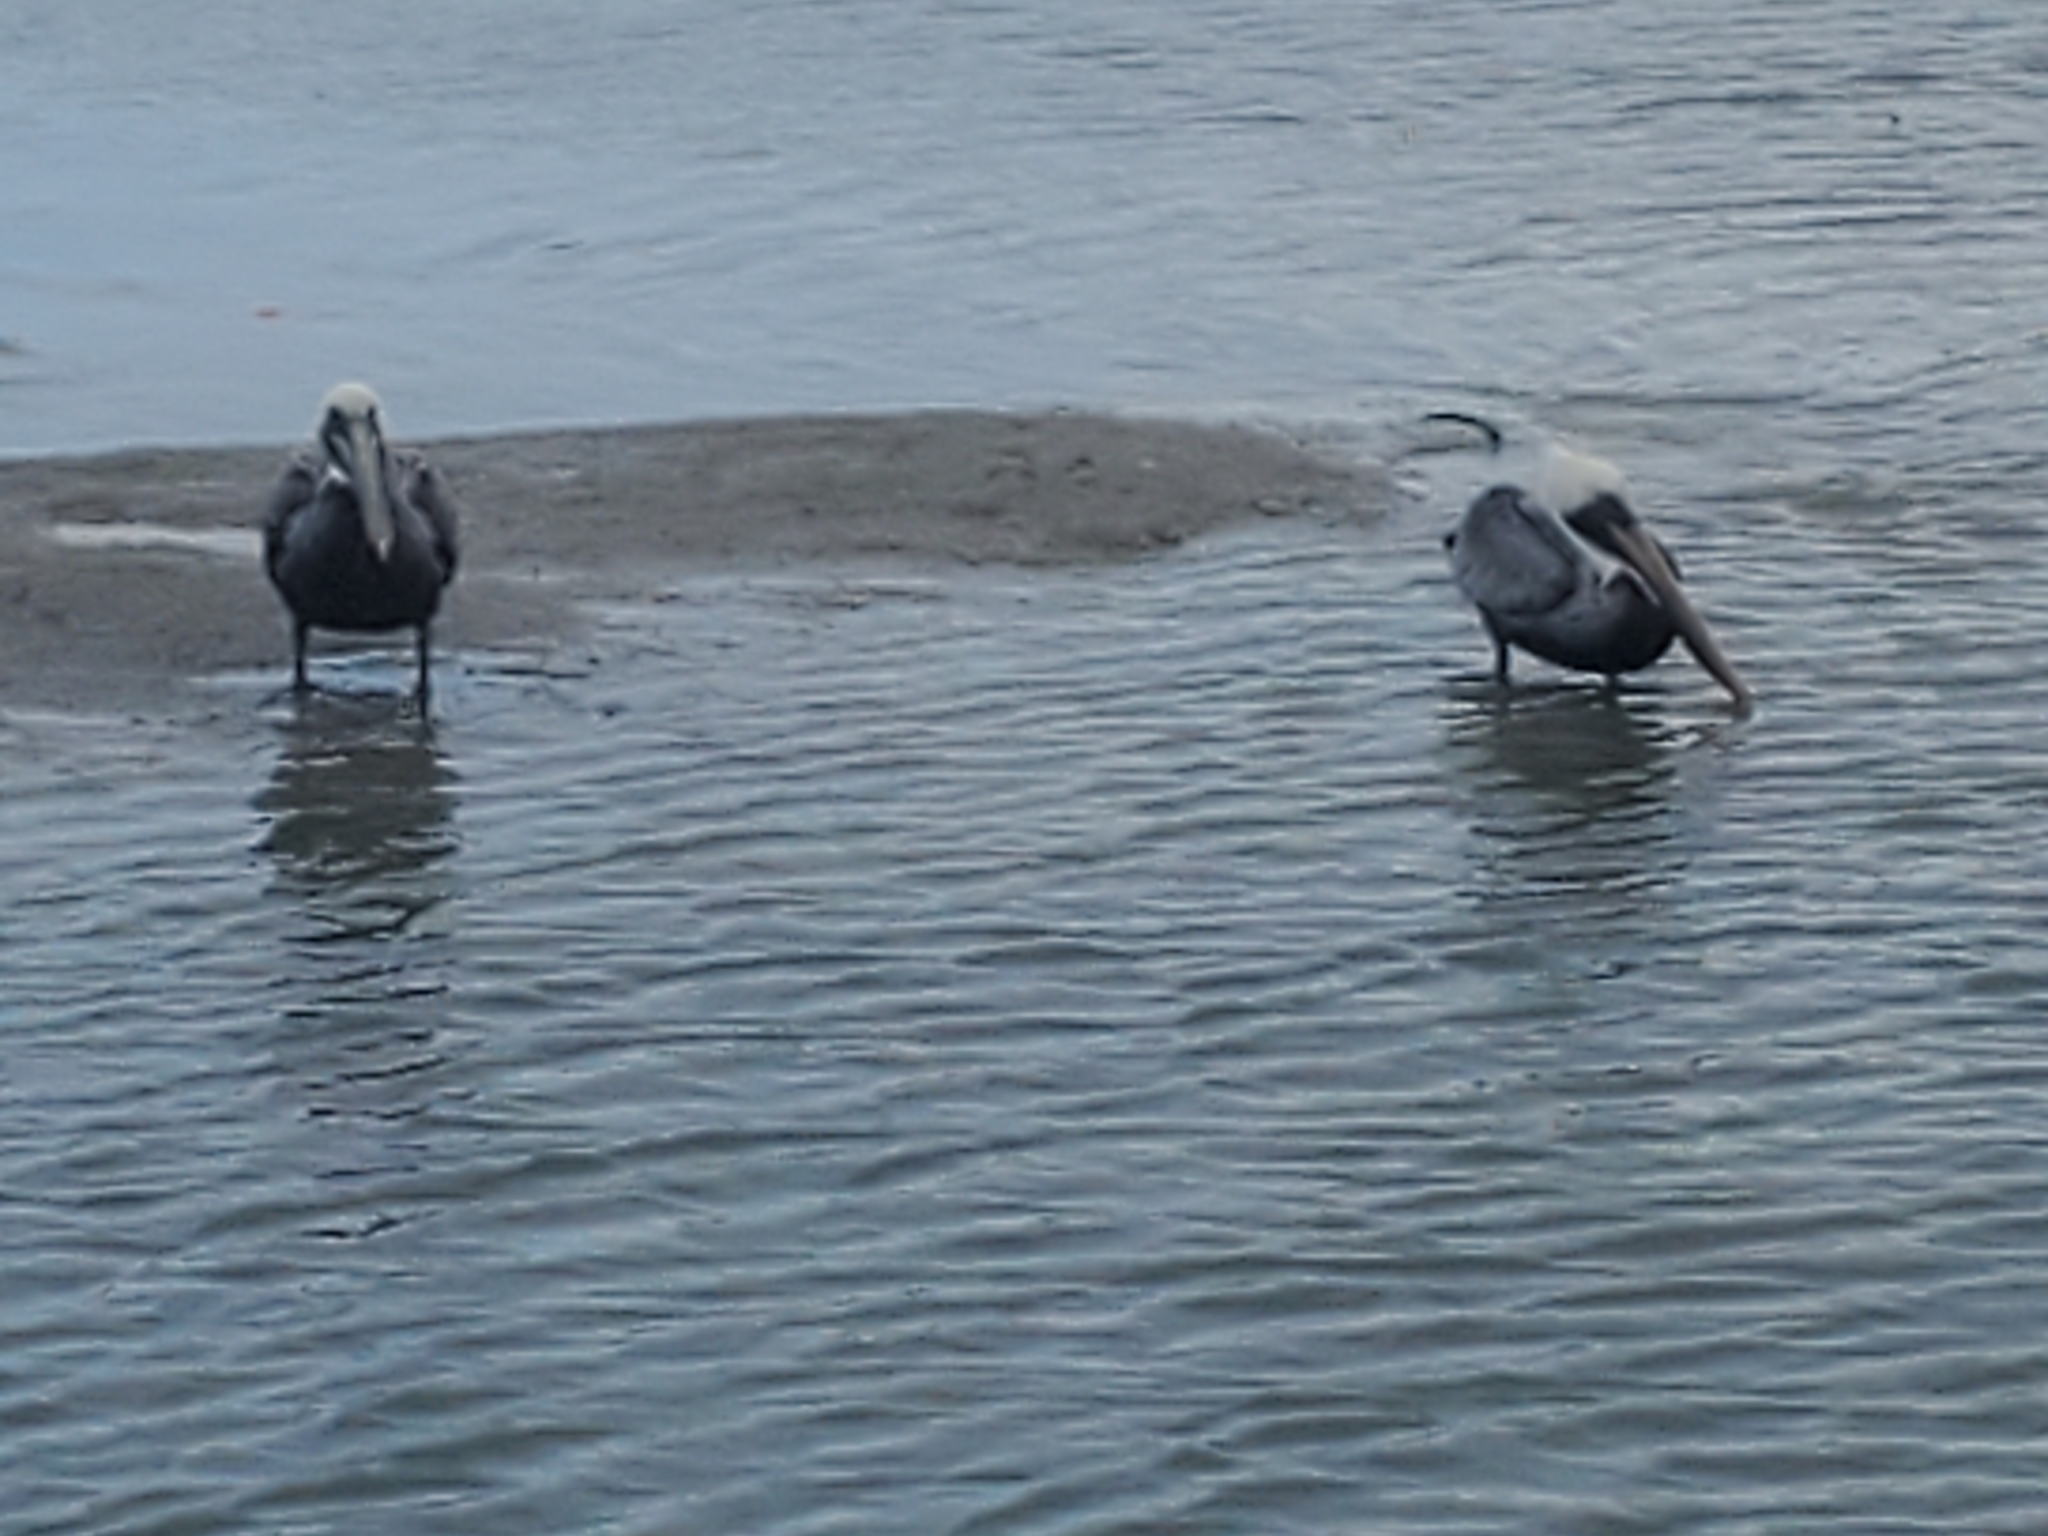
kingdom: Animalia
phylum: Chordata
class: Aves
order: Pelecaniformes
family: Pelecanidae
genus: Pelecanus
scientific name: Pelecanus occidentalis
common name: Brown pelican
